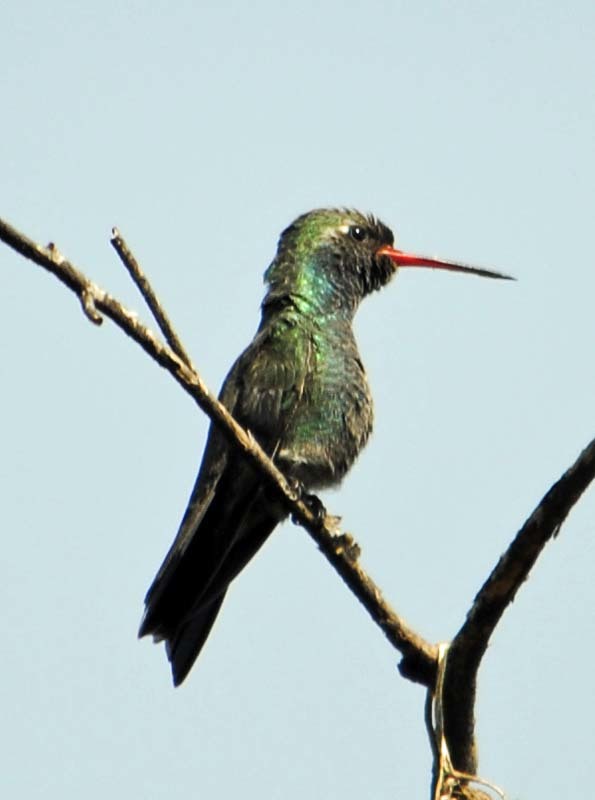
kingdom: Animalia
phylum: Chordata
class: Aves
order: Apodiformes
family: Trochilidae
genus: Cynanthus
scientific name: Cynanthus latirostris
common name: Broad-billed hummingbird
